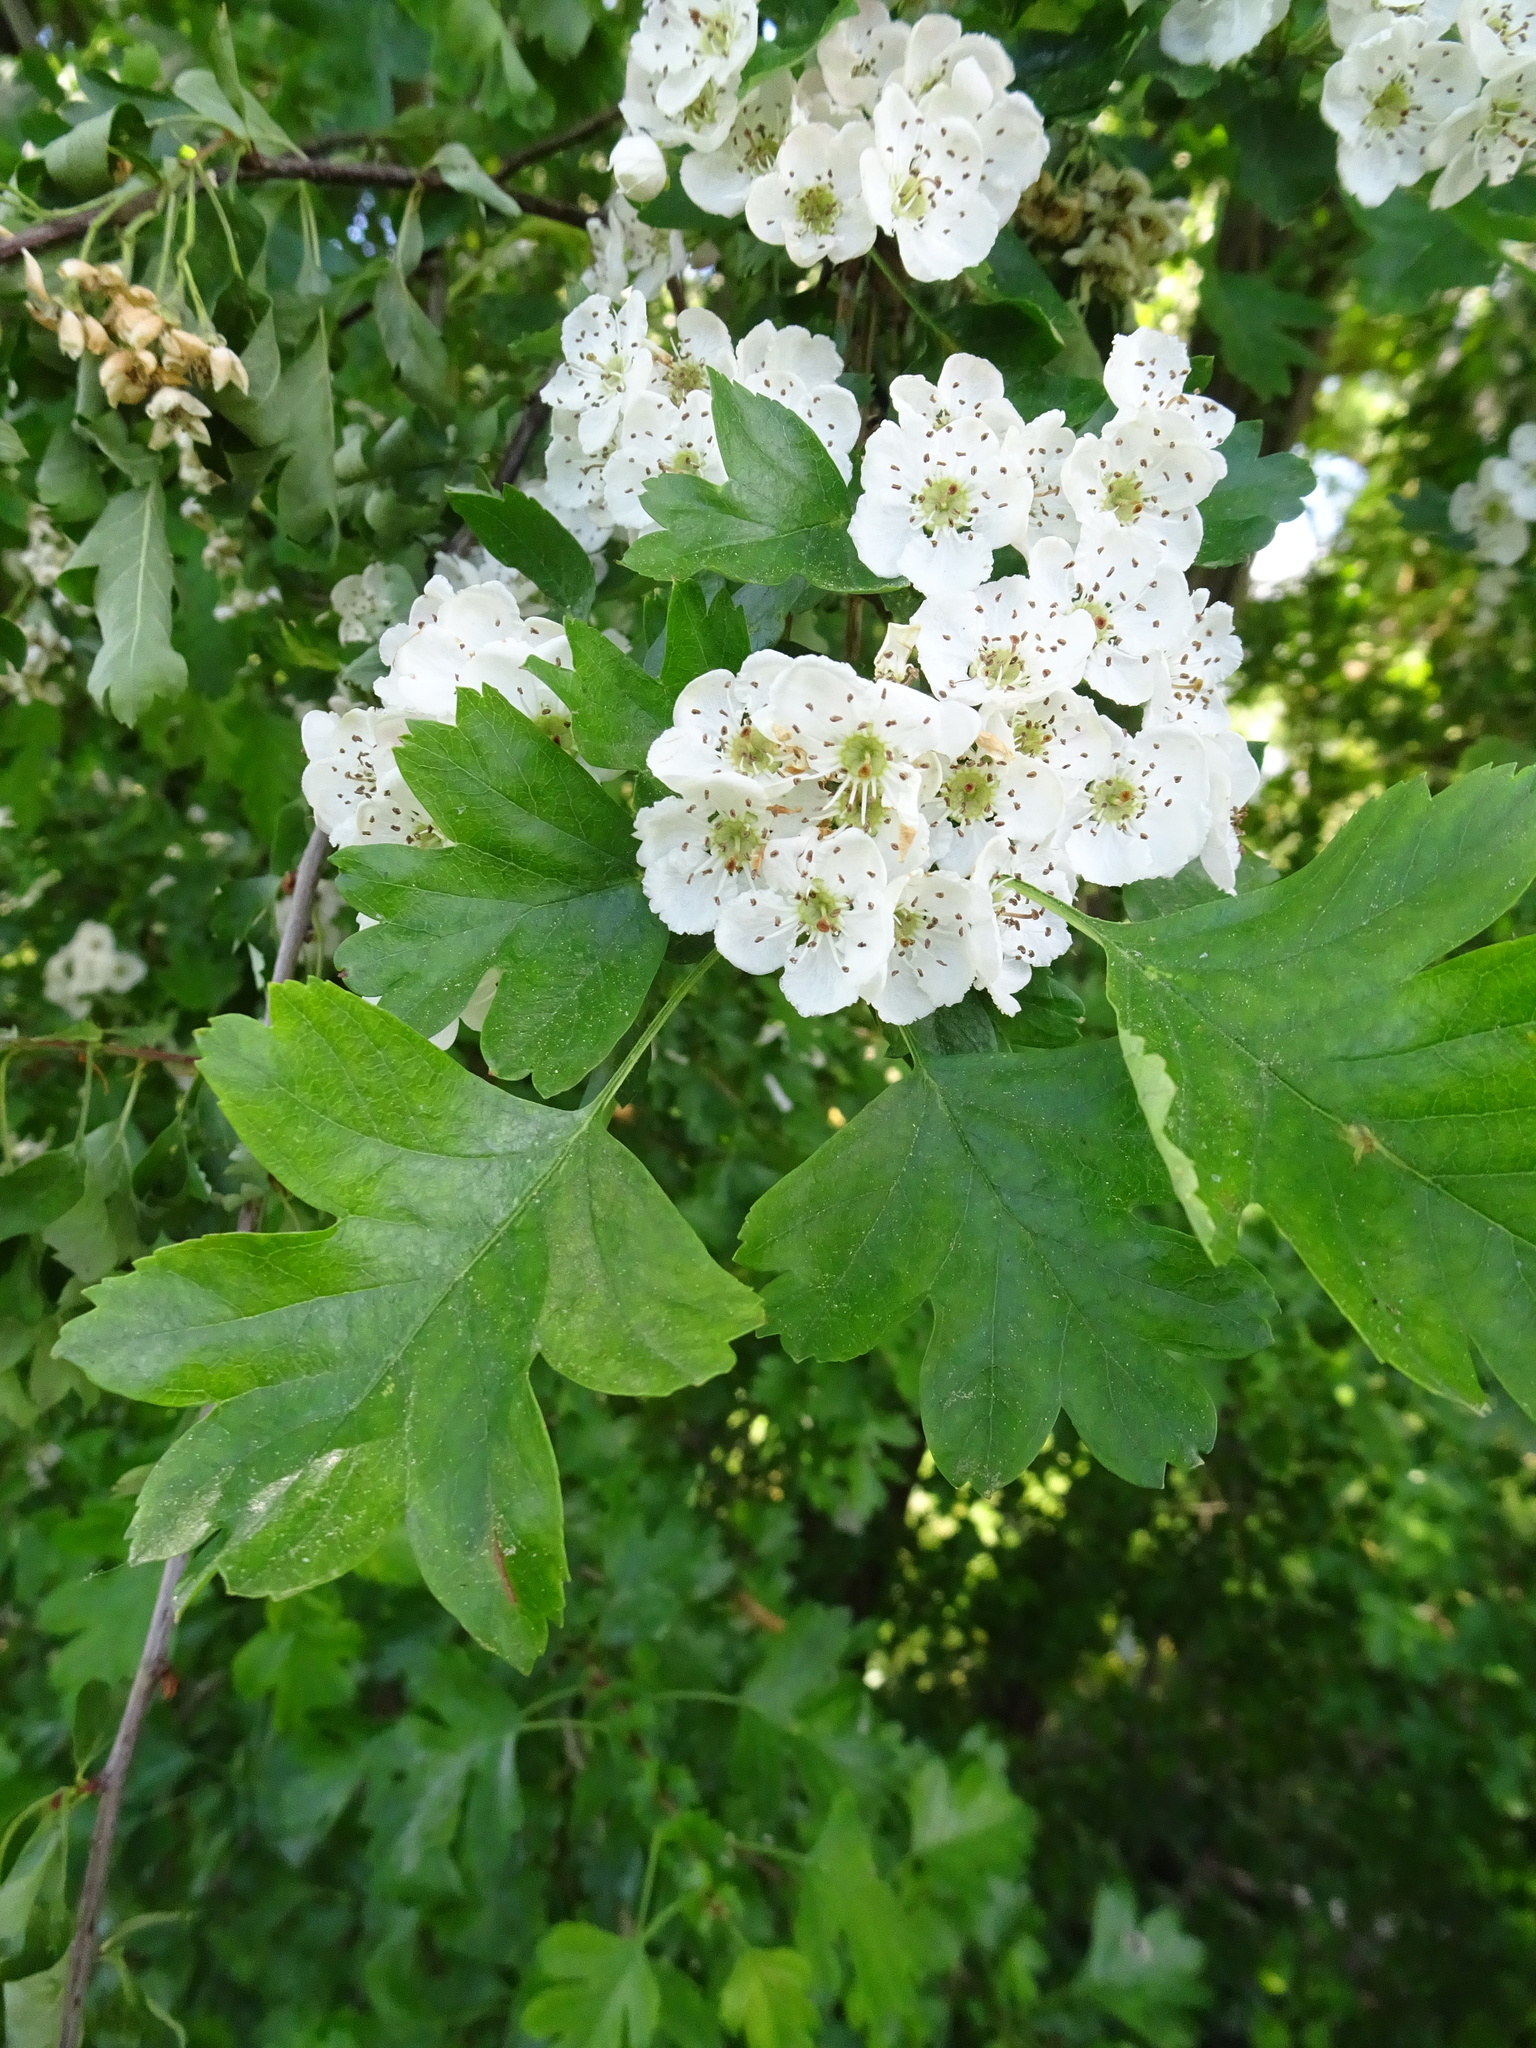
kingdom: Plantae
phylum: Tracheophyta
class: Magnoliopsida
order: Rosales
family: Rosaceae
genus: Crataegus
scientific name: Crataegus monogyna
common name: Hawthorn
